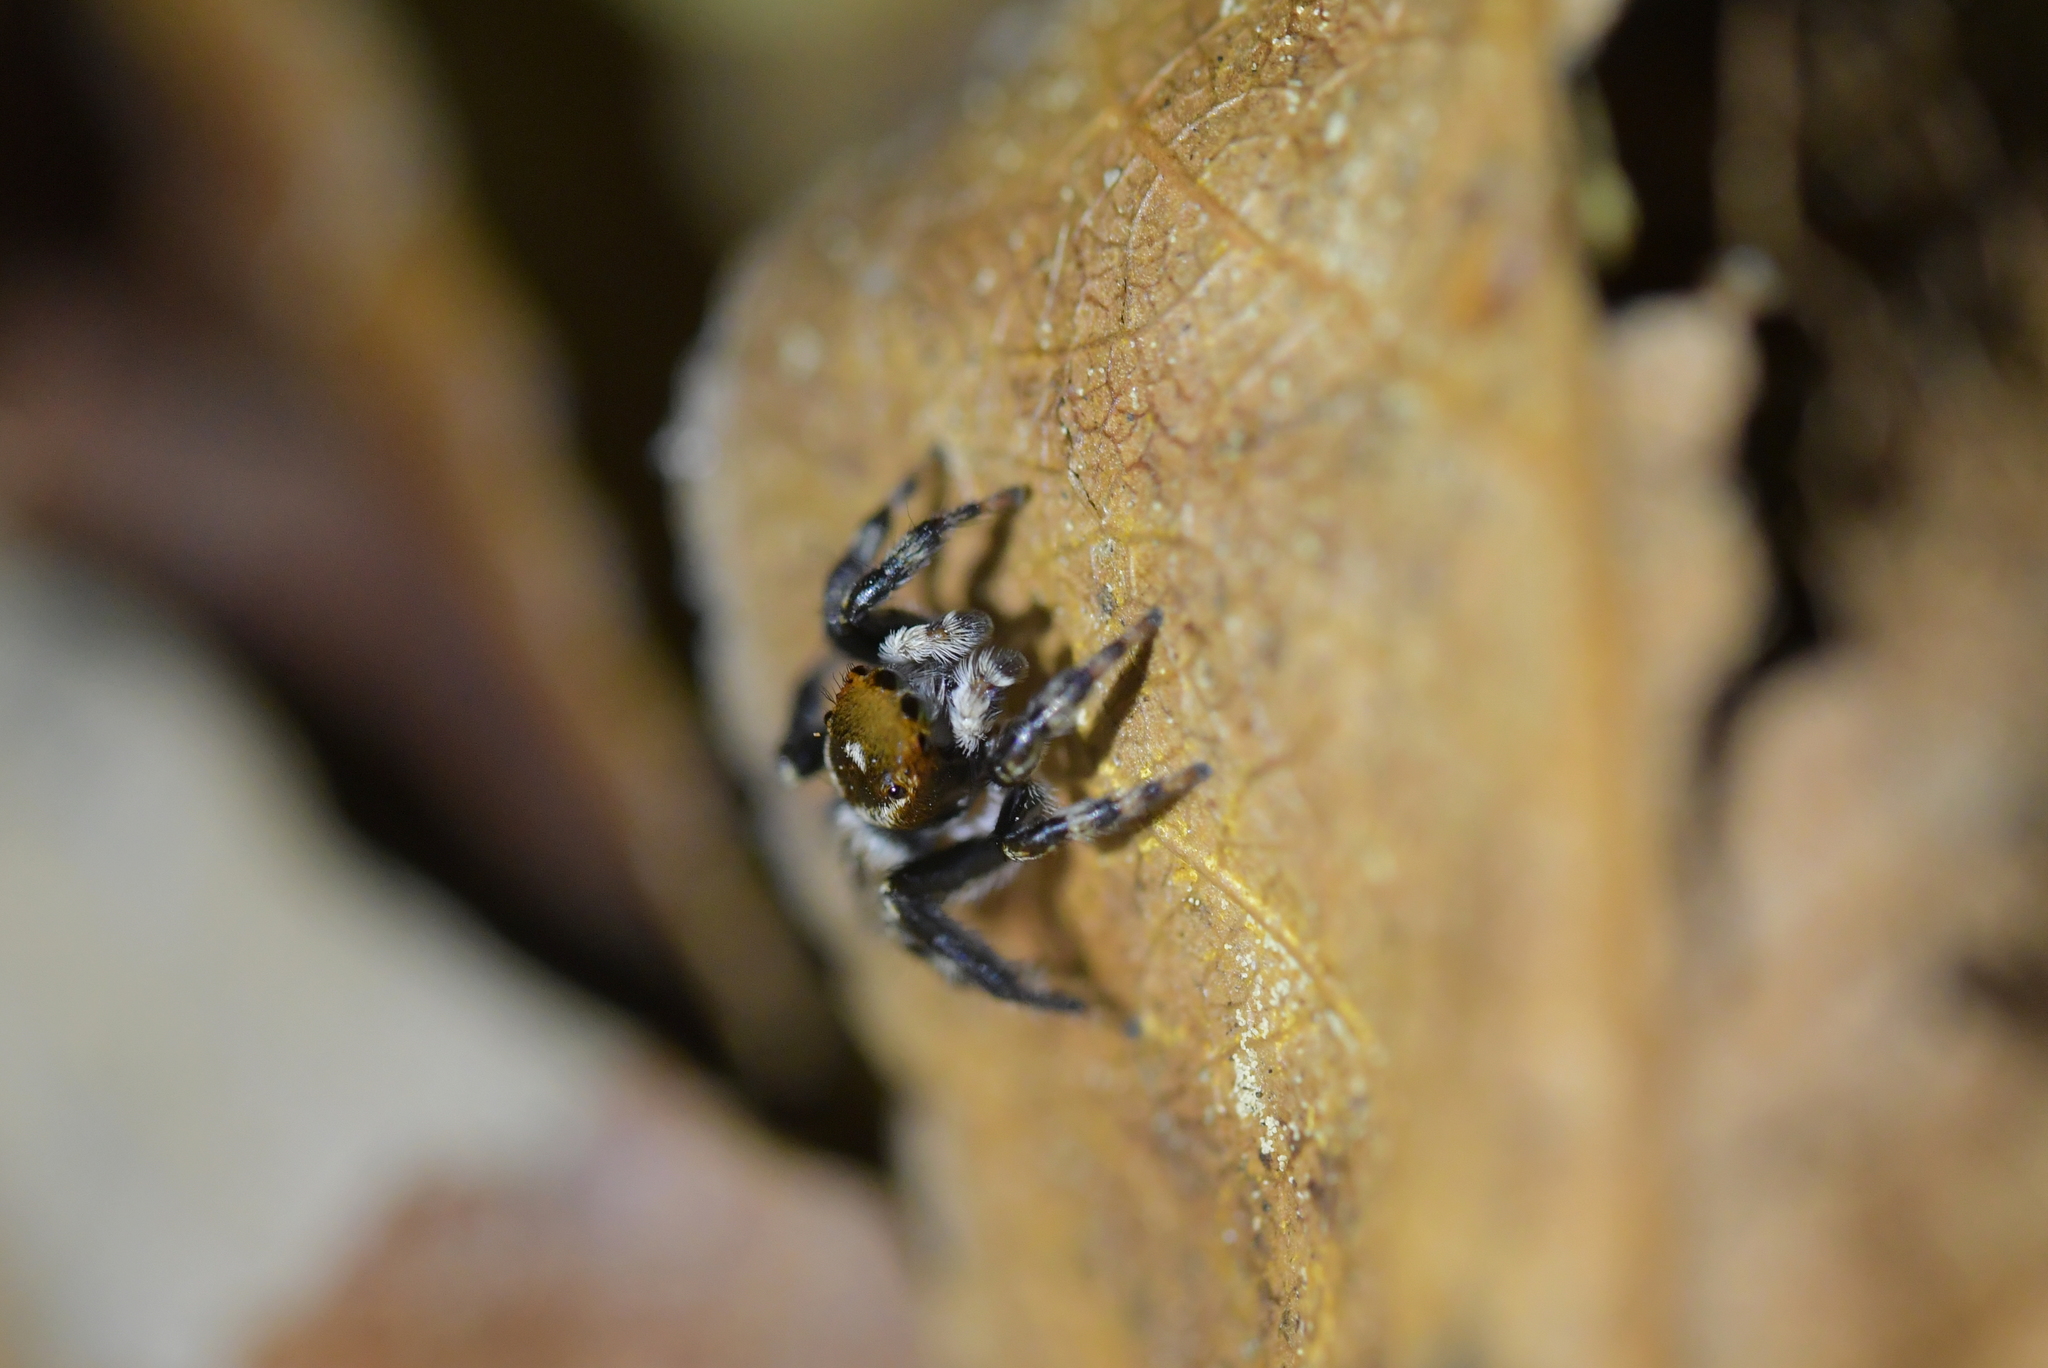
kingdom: Animalia
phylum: Arthropoda
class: Arachnida
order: Araneae
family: Salticidae
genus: Maratus
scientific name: Maratus griseus
